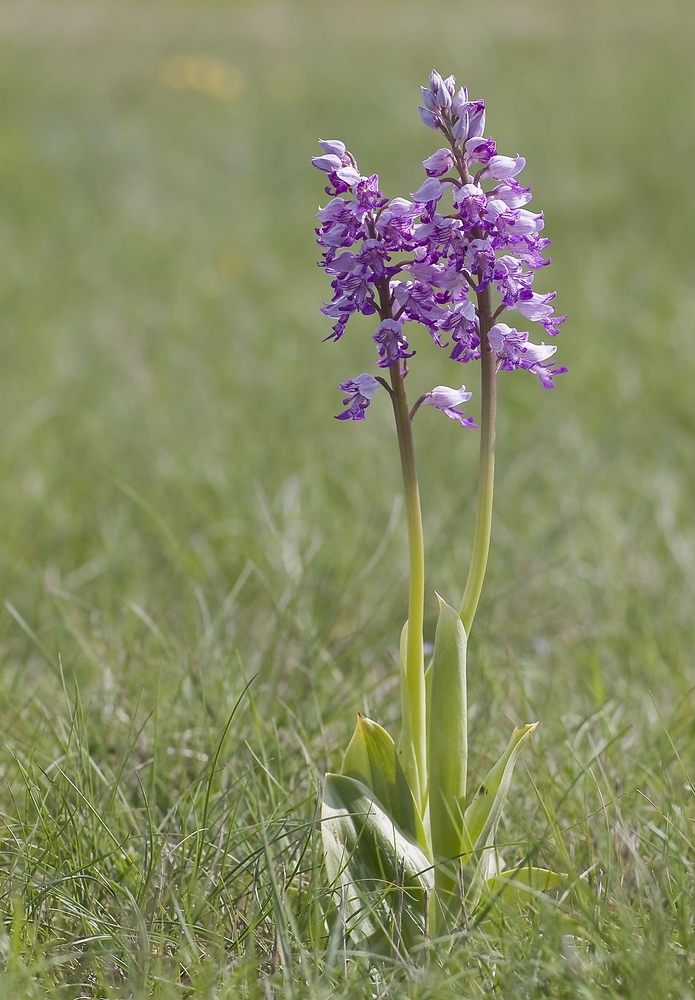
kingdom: Plantae
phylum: Tracheophyta
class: Liliopsida
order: Asparagales
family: Orchidaceae
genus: Orchis
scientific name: Orchis militaris
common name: Military orchid
